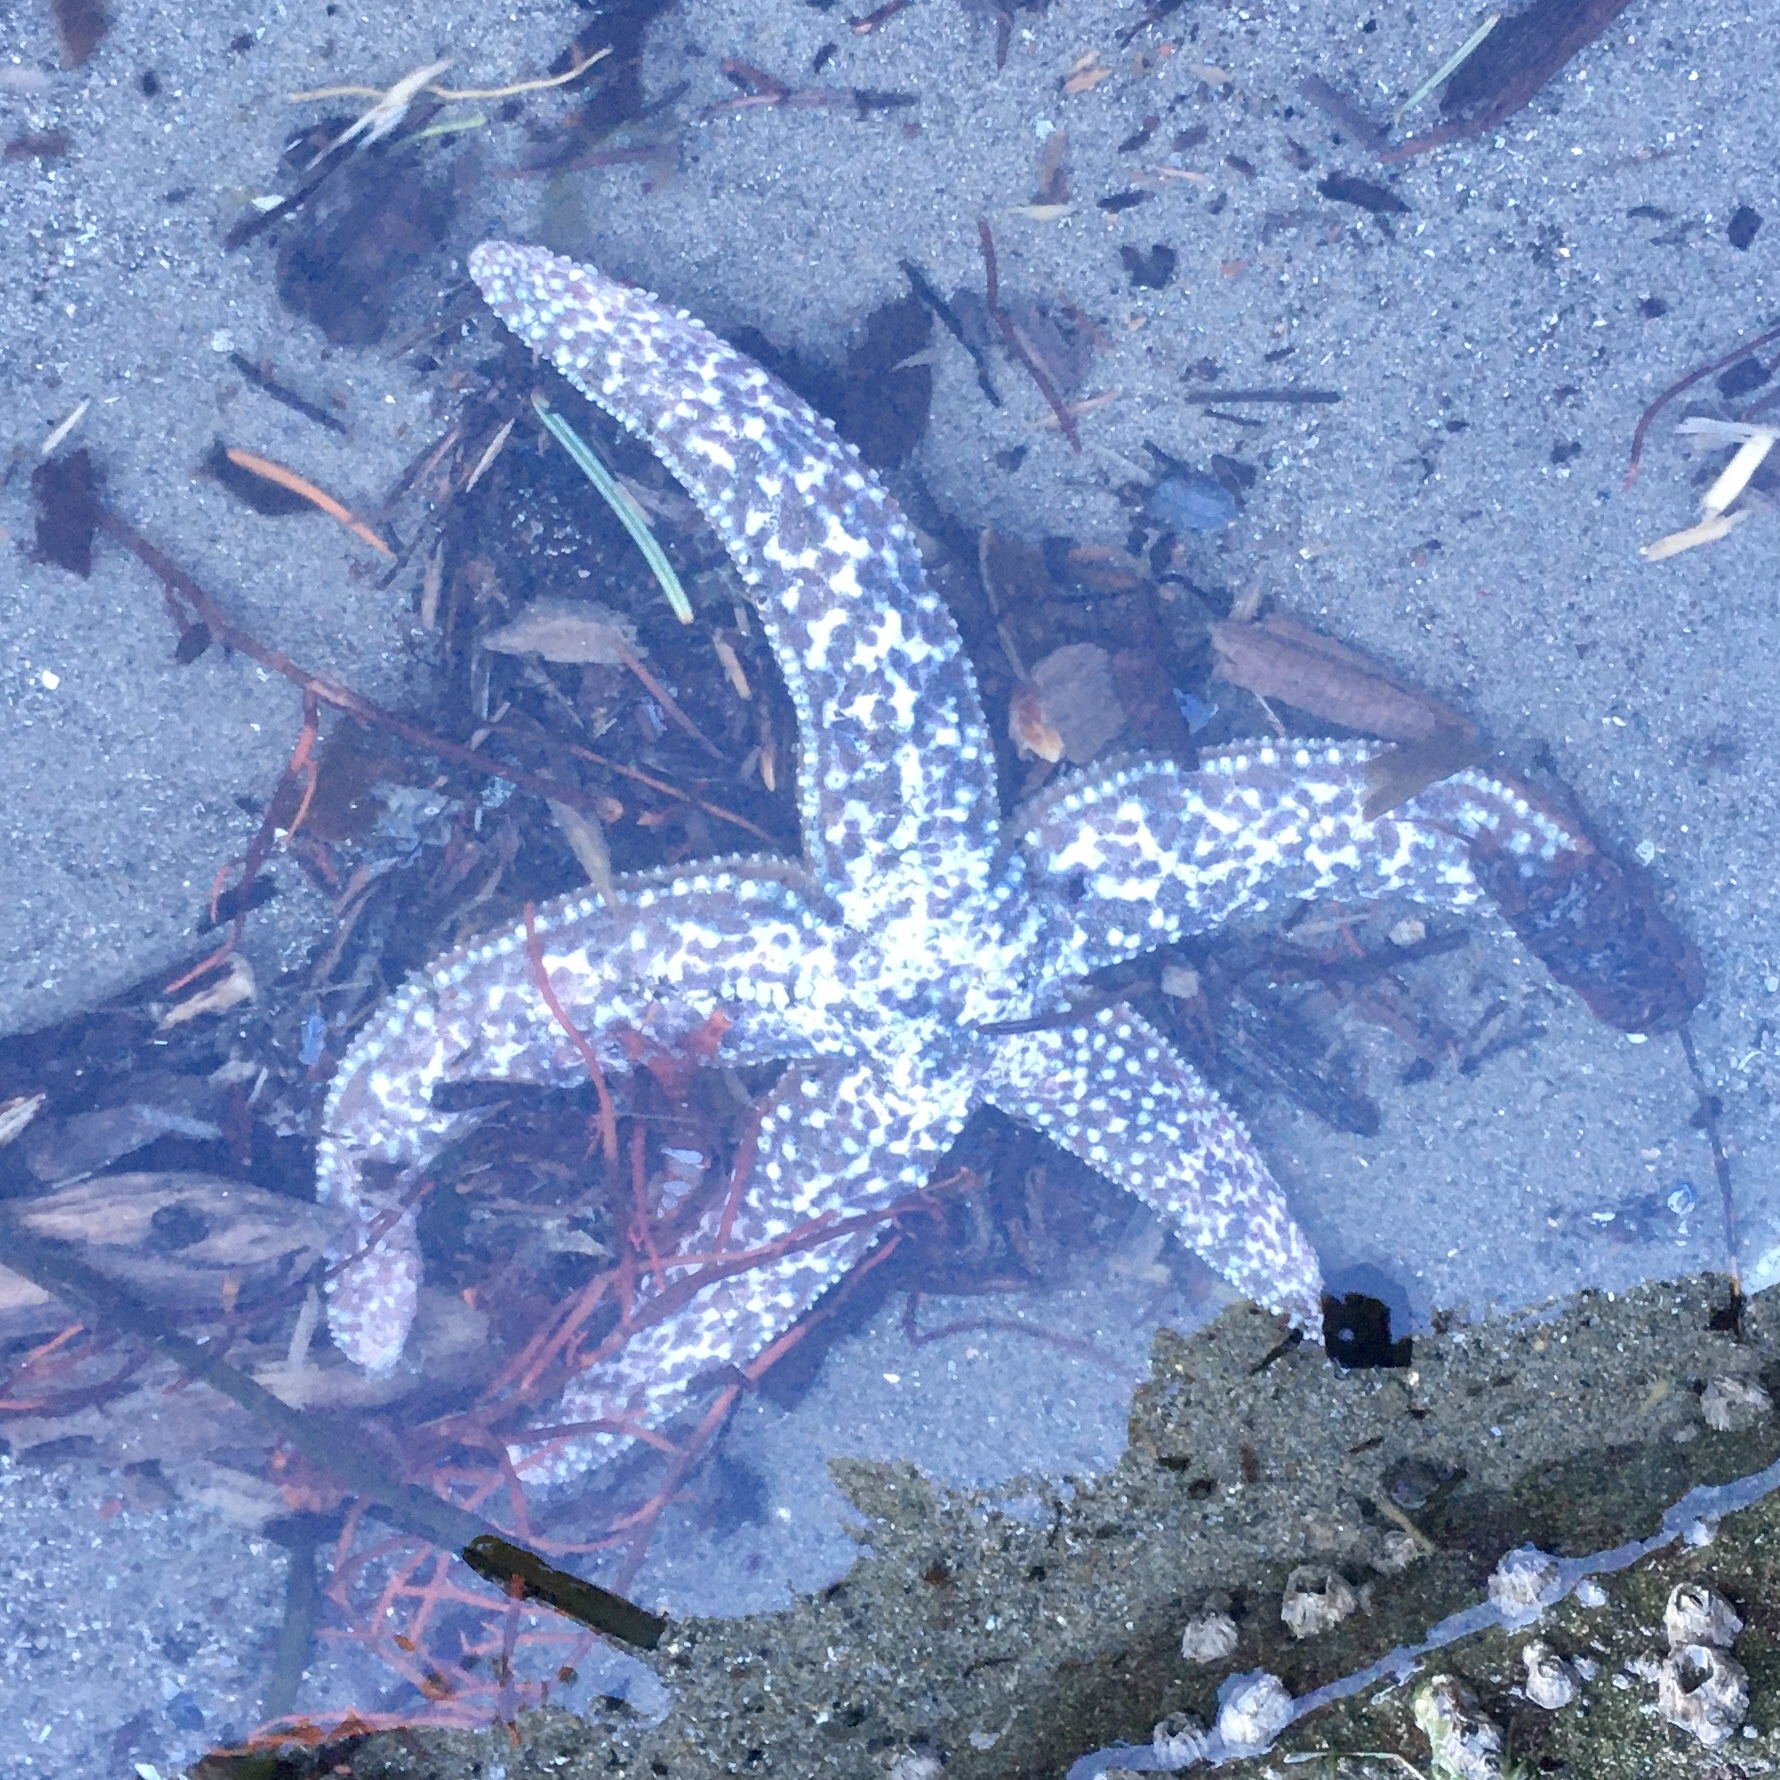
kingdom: Animalia
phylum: Echinodermata
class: Asteroidea
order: Forcipulatida
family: Asteriidae
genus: Evasterias
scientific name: Evasterias troschelii
